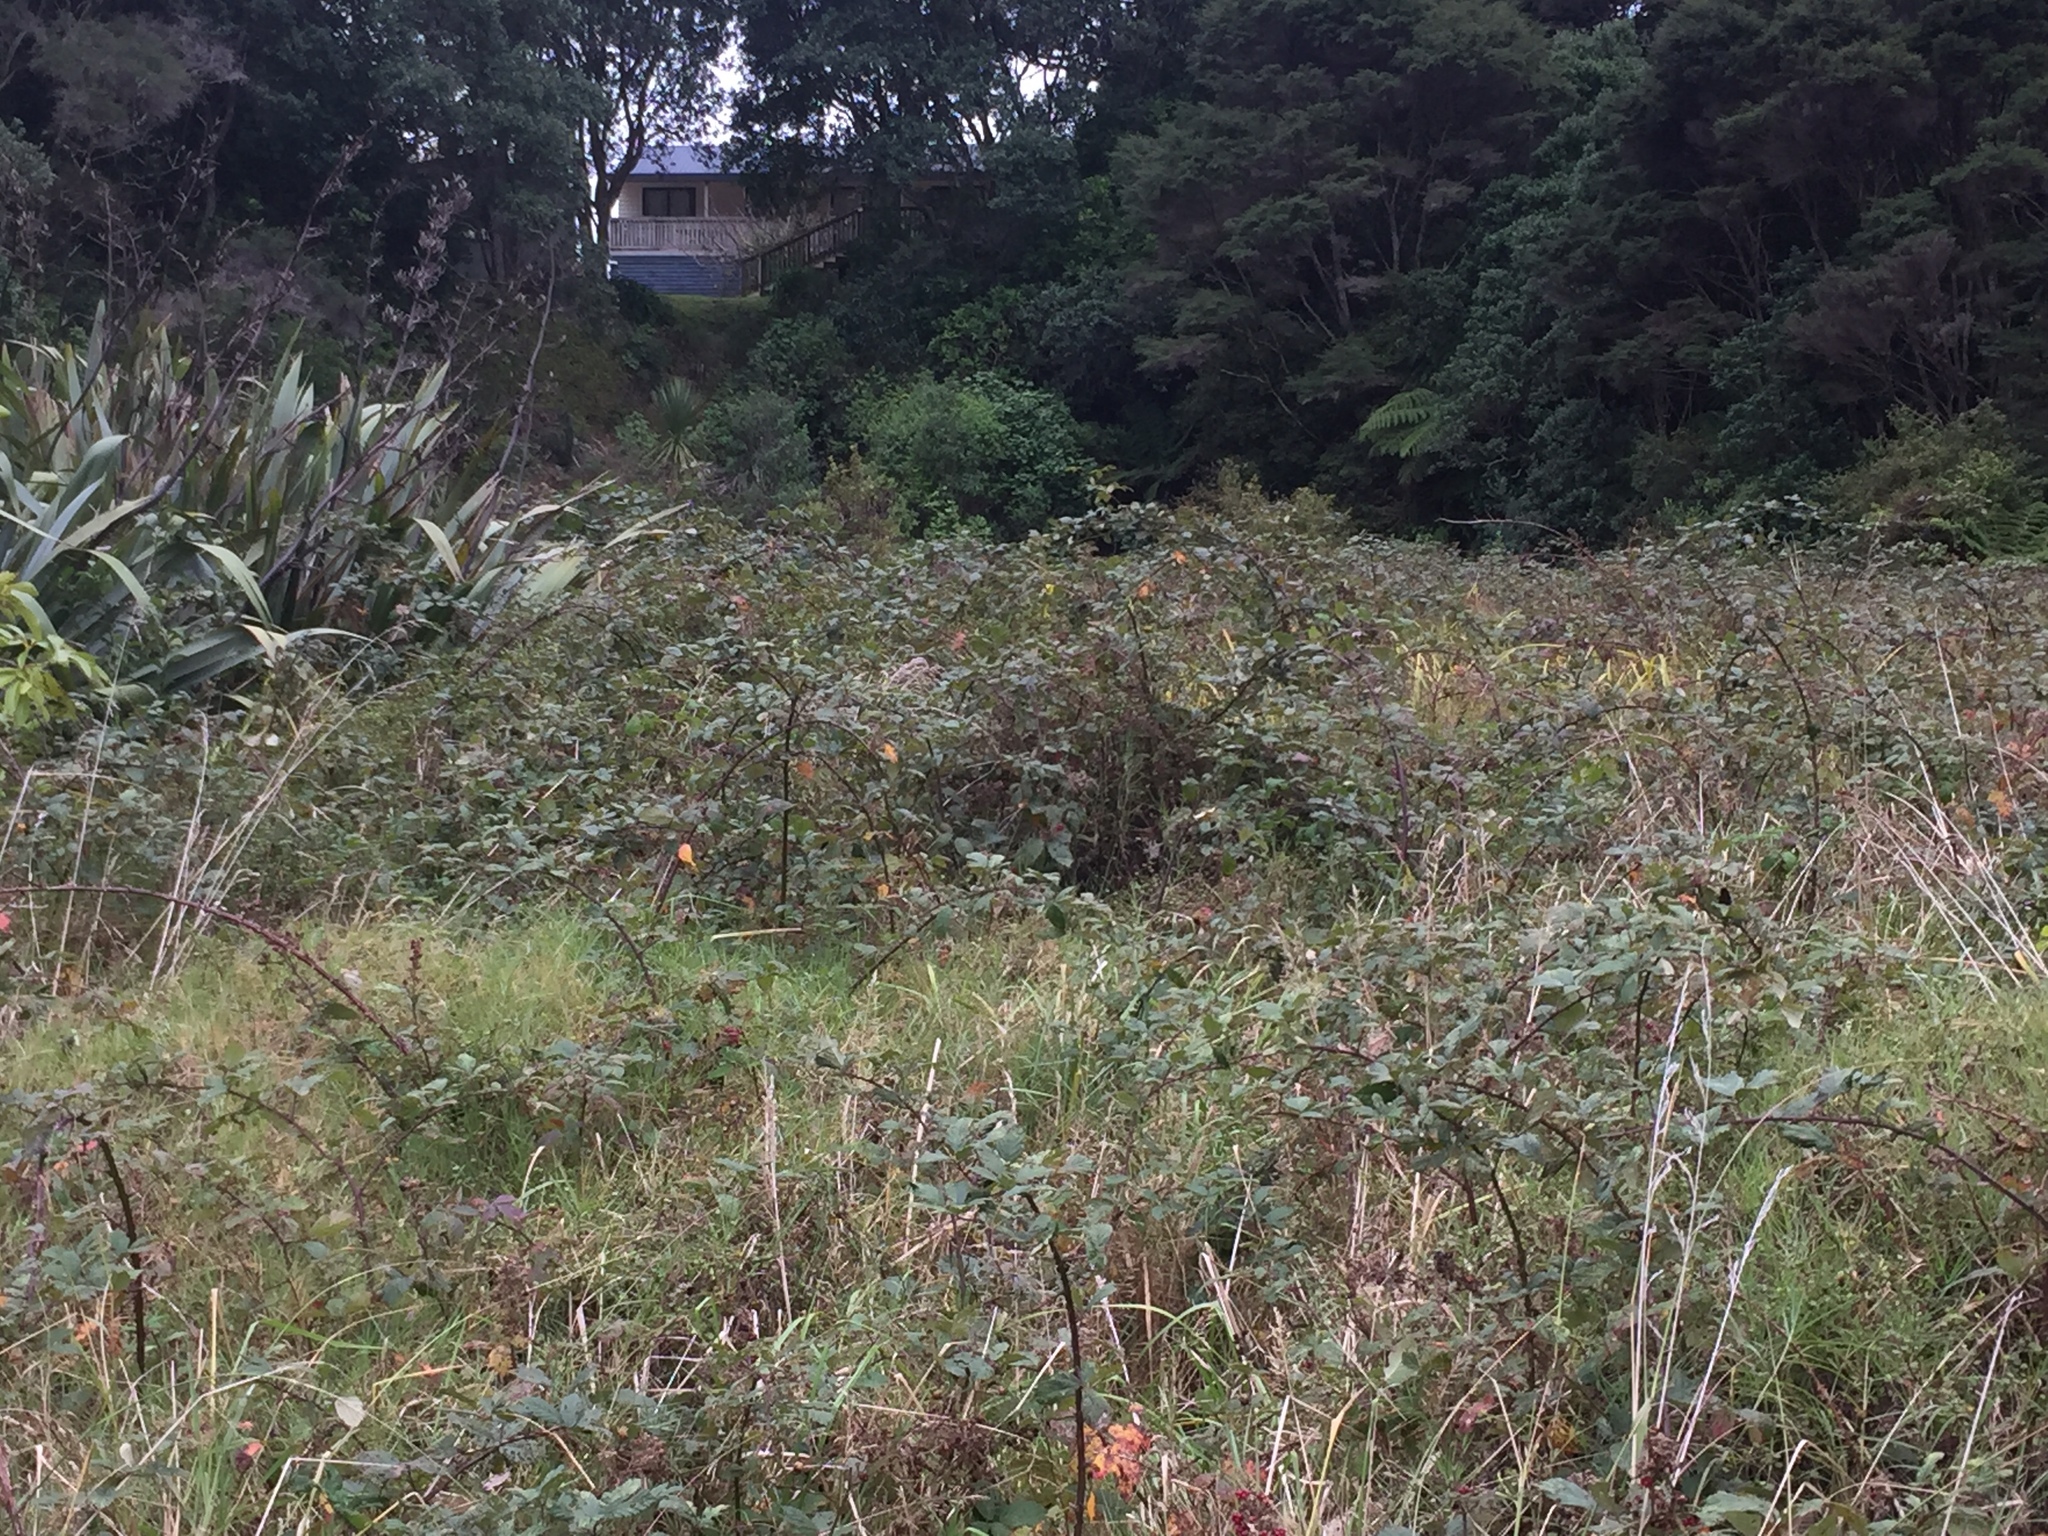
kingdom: Plantae
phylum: Tracheophyta
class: Magnoliopsida
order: Rosales
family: Rosaceae
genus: Rubus
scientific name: Rubus
